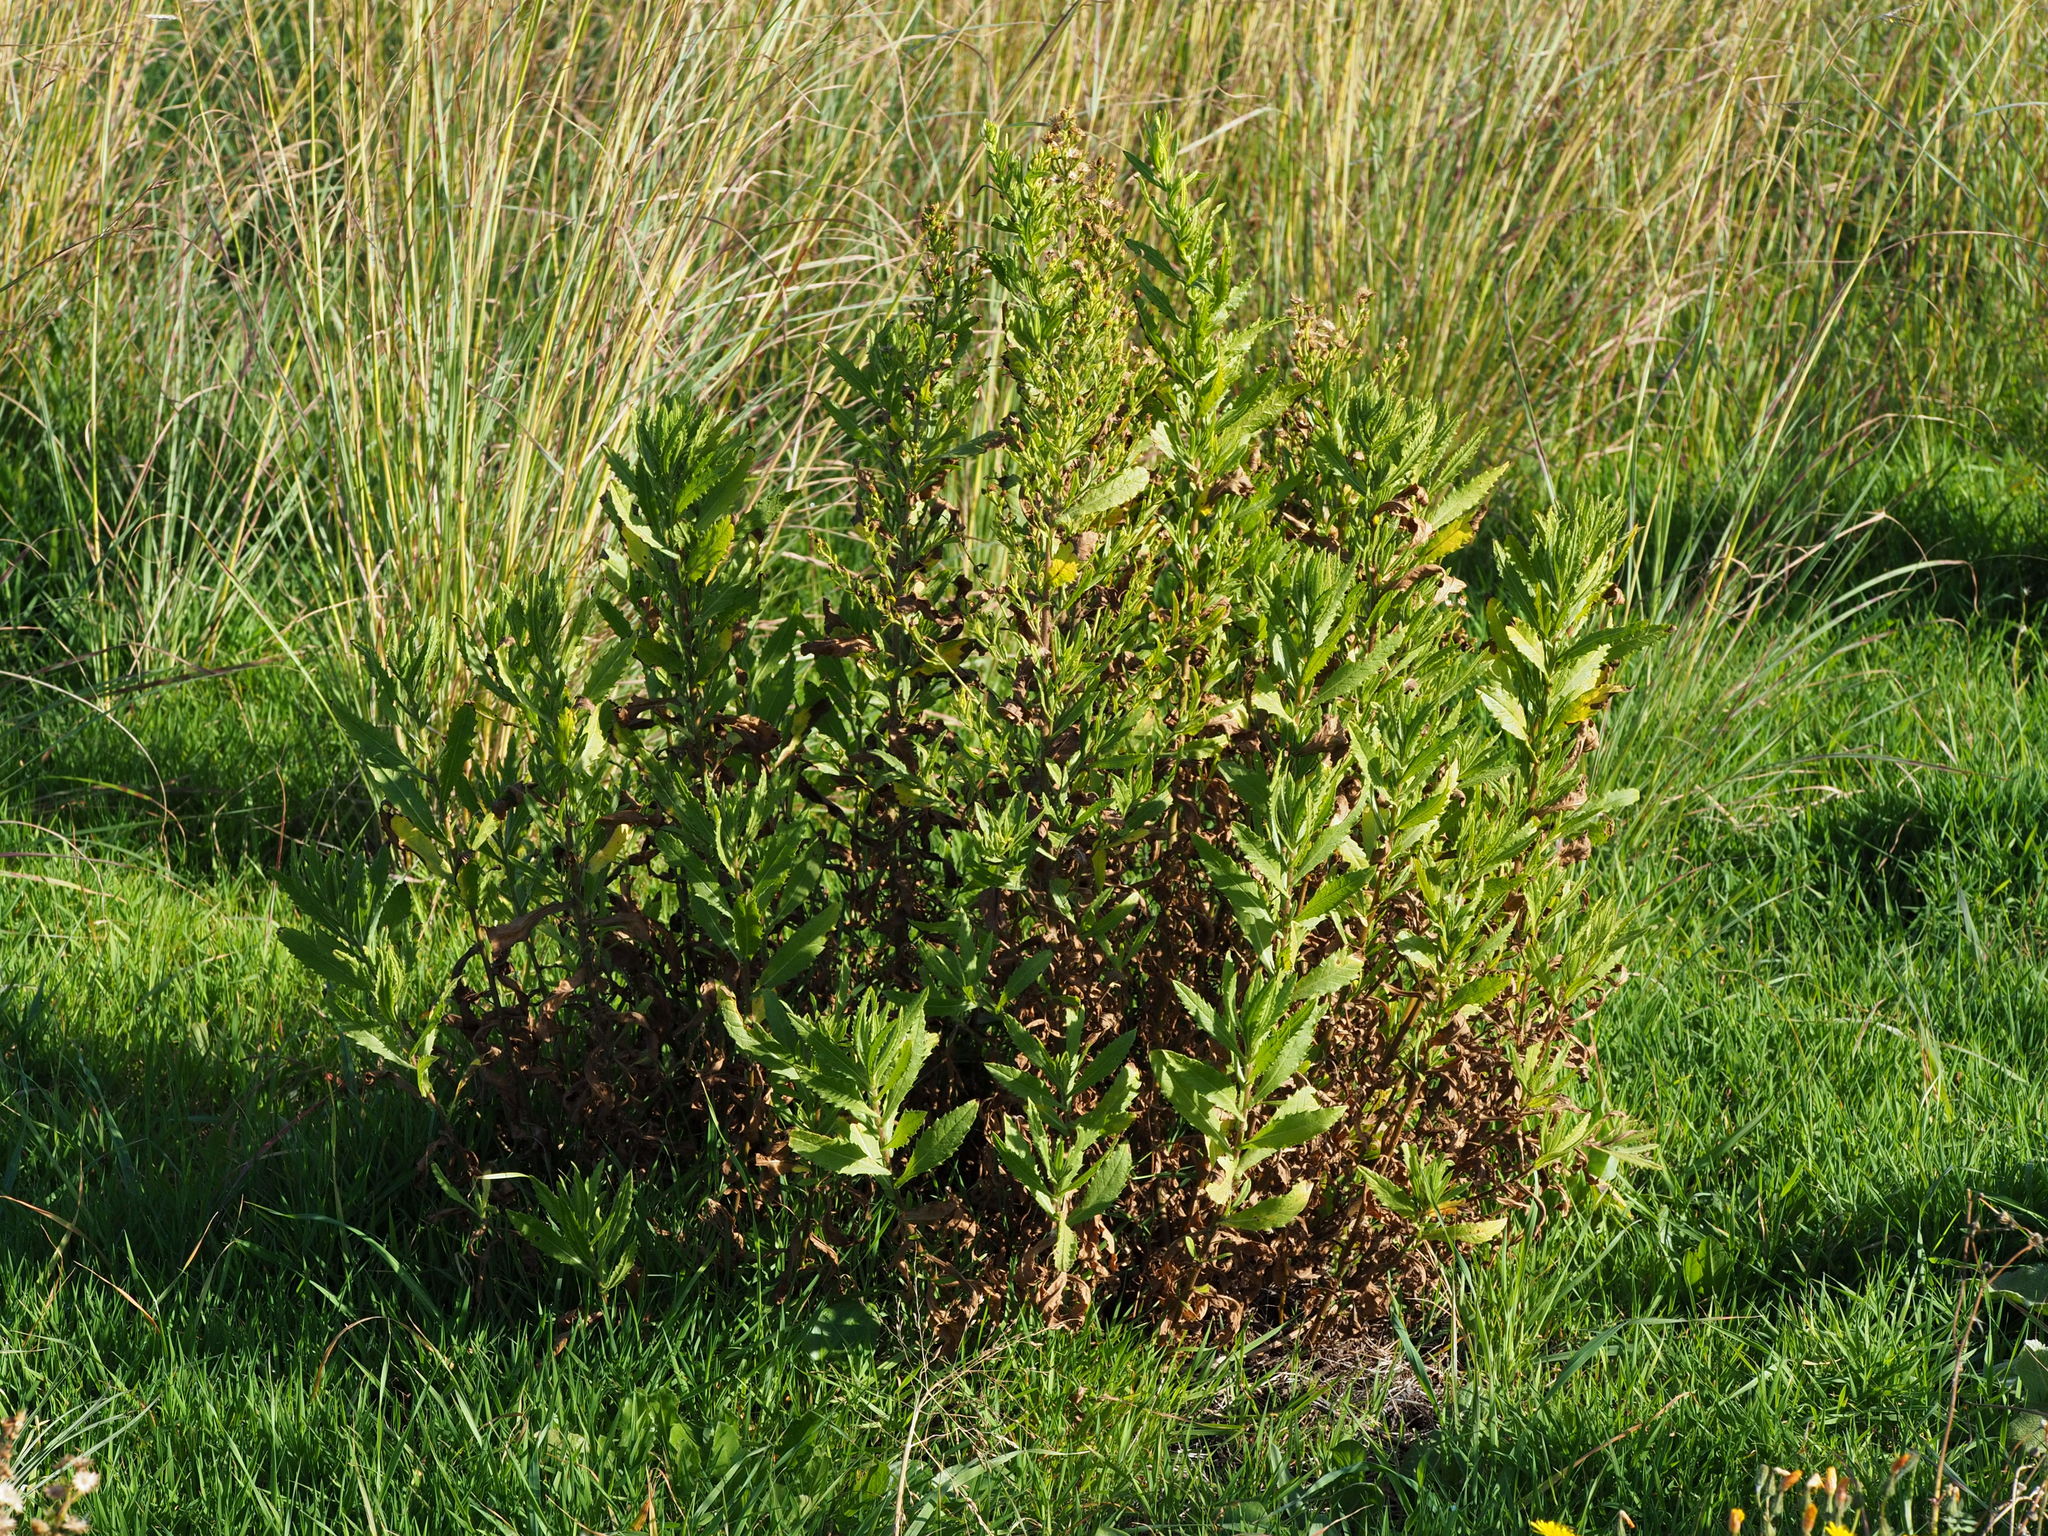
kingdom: Plantae
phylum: Tracheophyta
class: Magnoliopsida
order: Asterales
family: Asteraceae
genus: Dittrichia
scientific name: Dittrichia viscosa
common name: Woody fleabane
